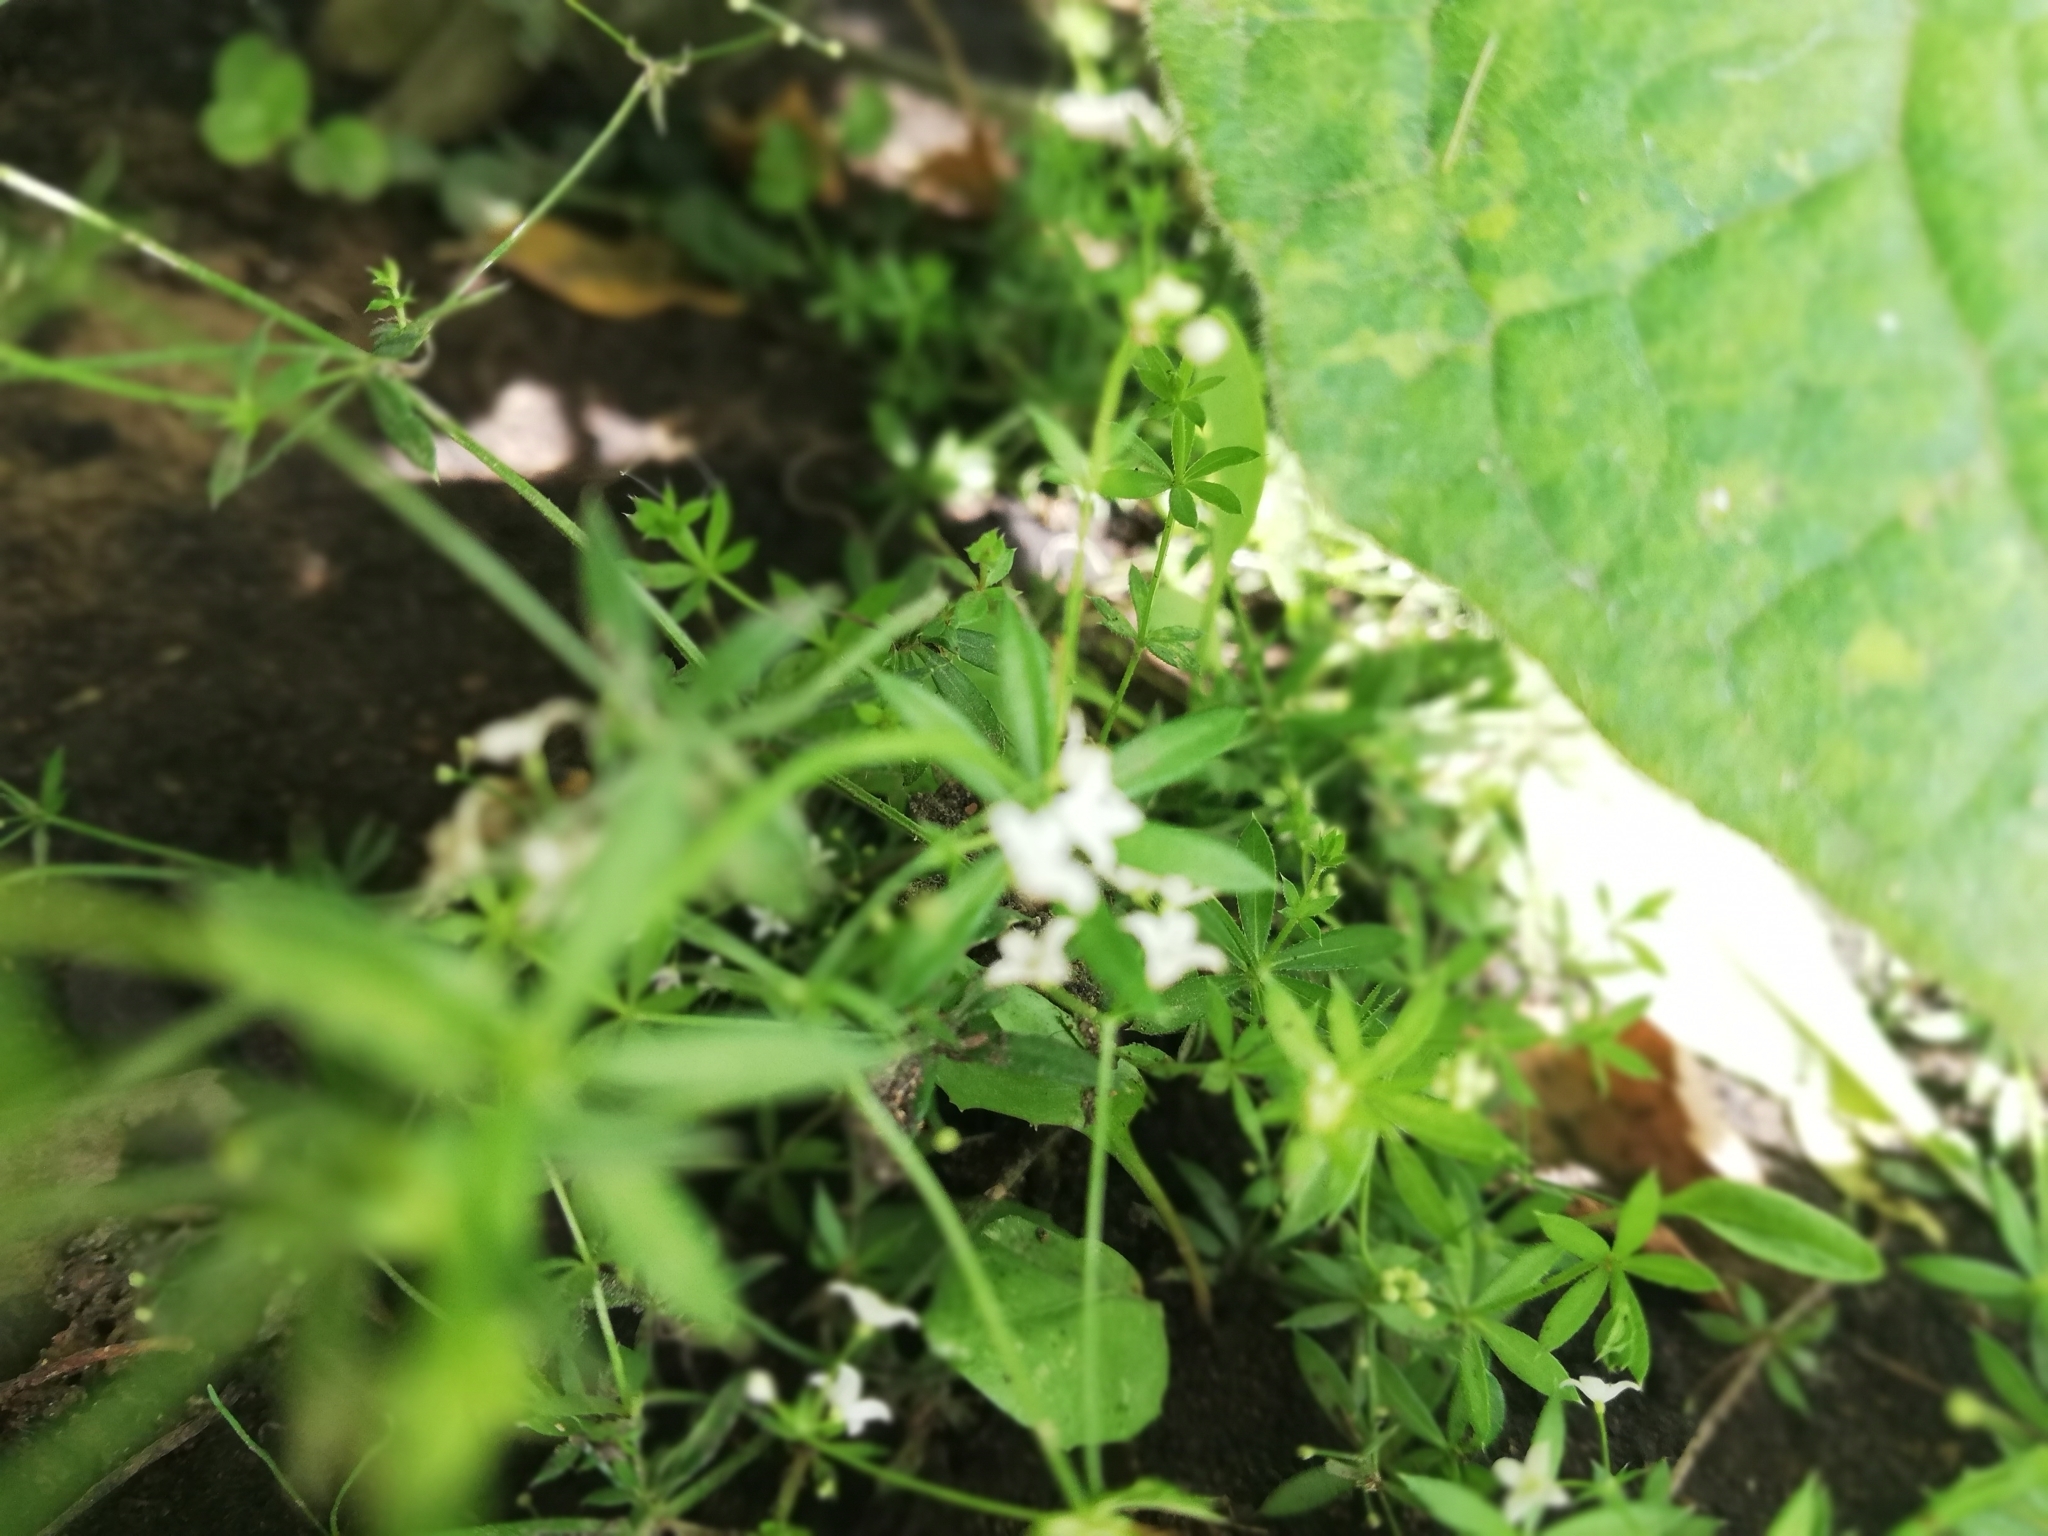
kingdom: Plantae
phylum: Tracheophyta
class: Magnoliopsida
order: Gentianales
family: Rubiaceae
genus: Galium
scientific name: Galium uliginosum
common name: Fen bedstraw
